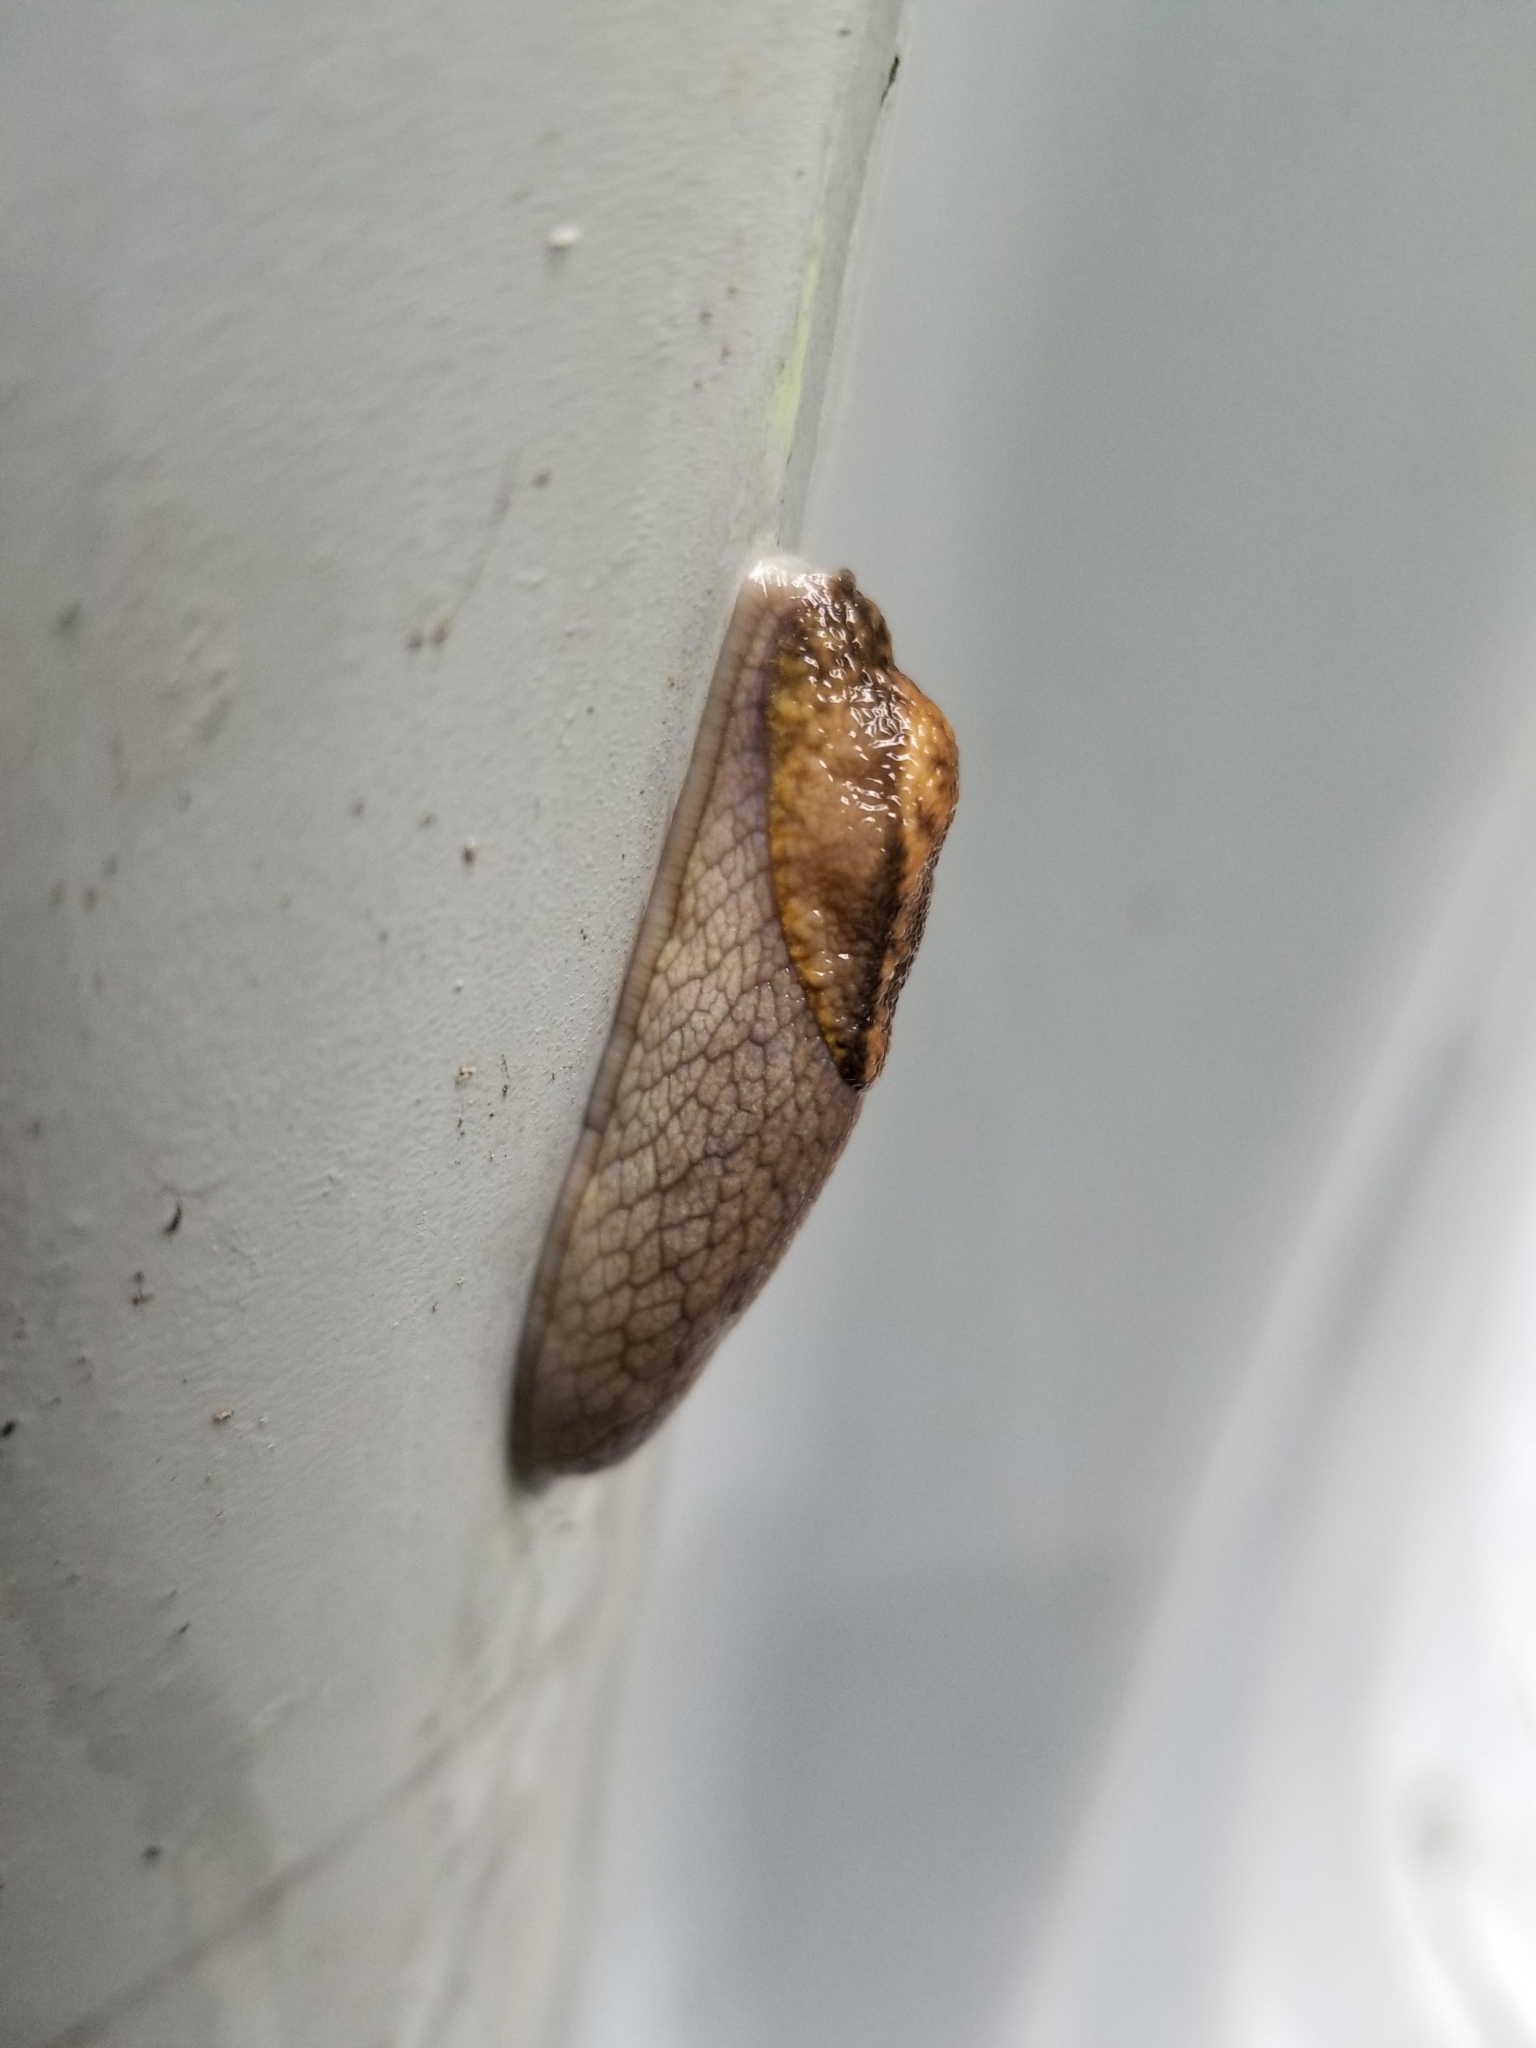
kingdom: Animalia
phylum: Mollusca
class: Gastropoda
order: Stylommatophora
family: Ariolimacidae
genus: Prophysaon
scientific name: Prophysaon andersonii
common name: Reticulate taildropper
